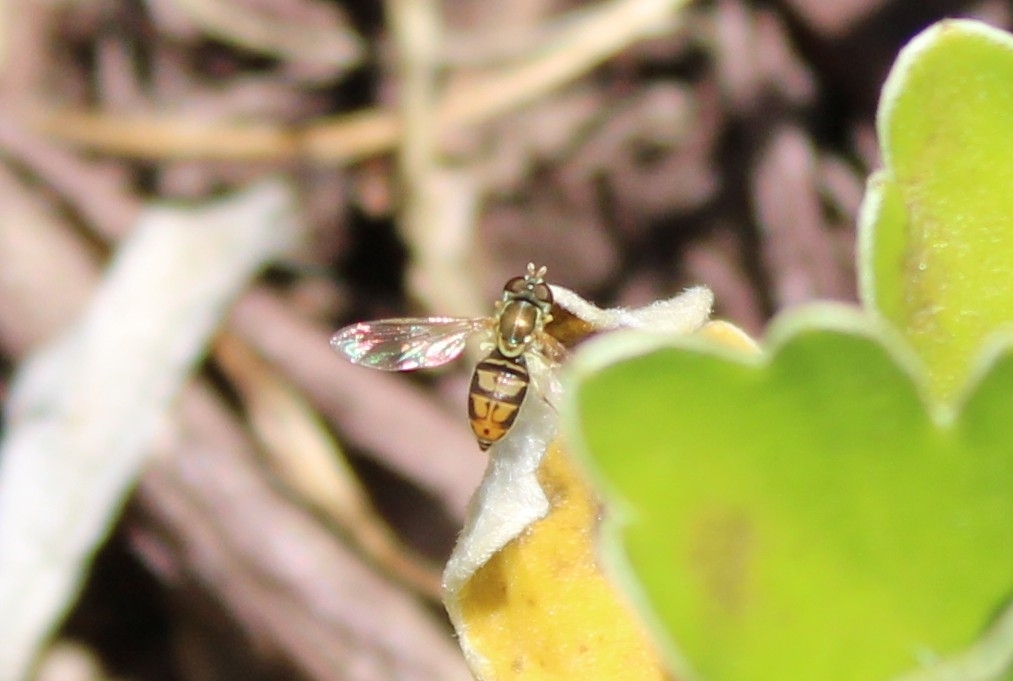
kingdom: Animalia
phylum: Arthropoda
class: Insecta
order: Diptera
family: Syrphidae
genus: Toxomerus
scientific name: Toxomerus marginatus
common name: Syrphid fly
